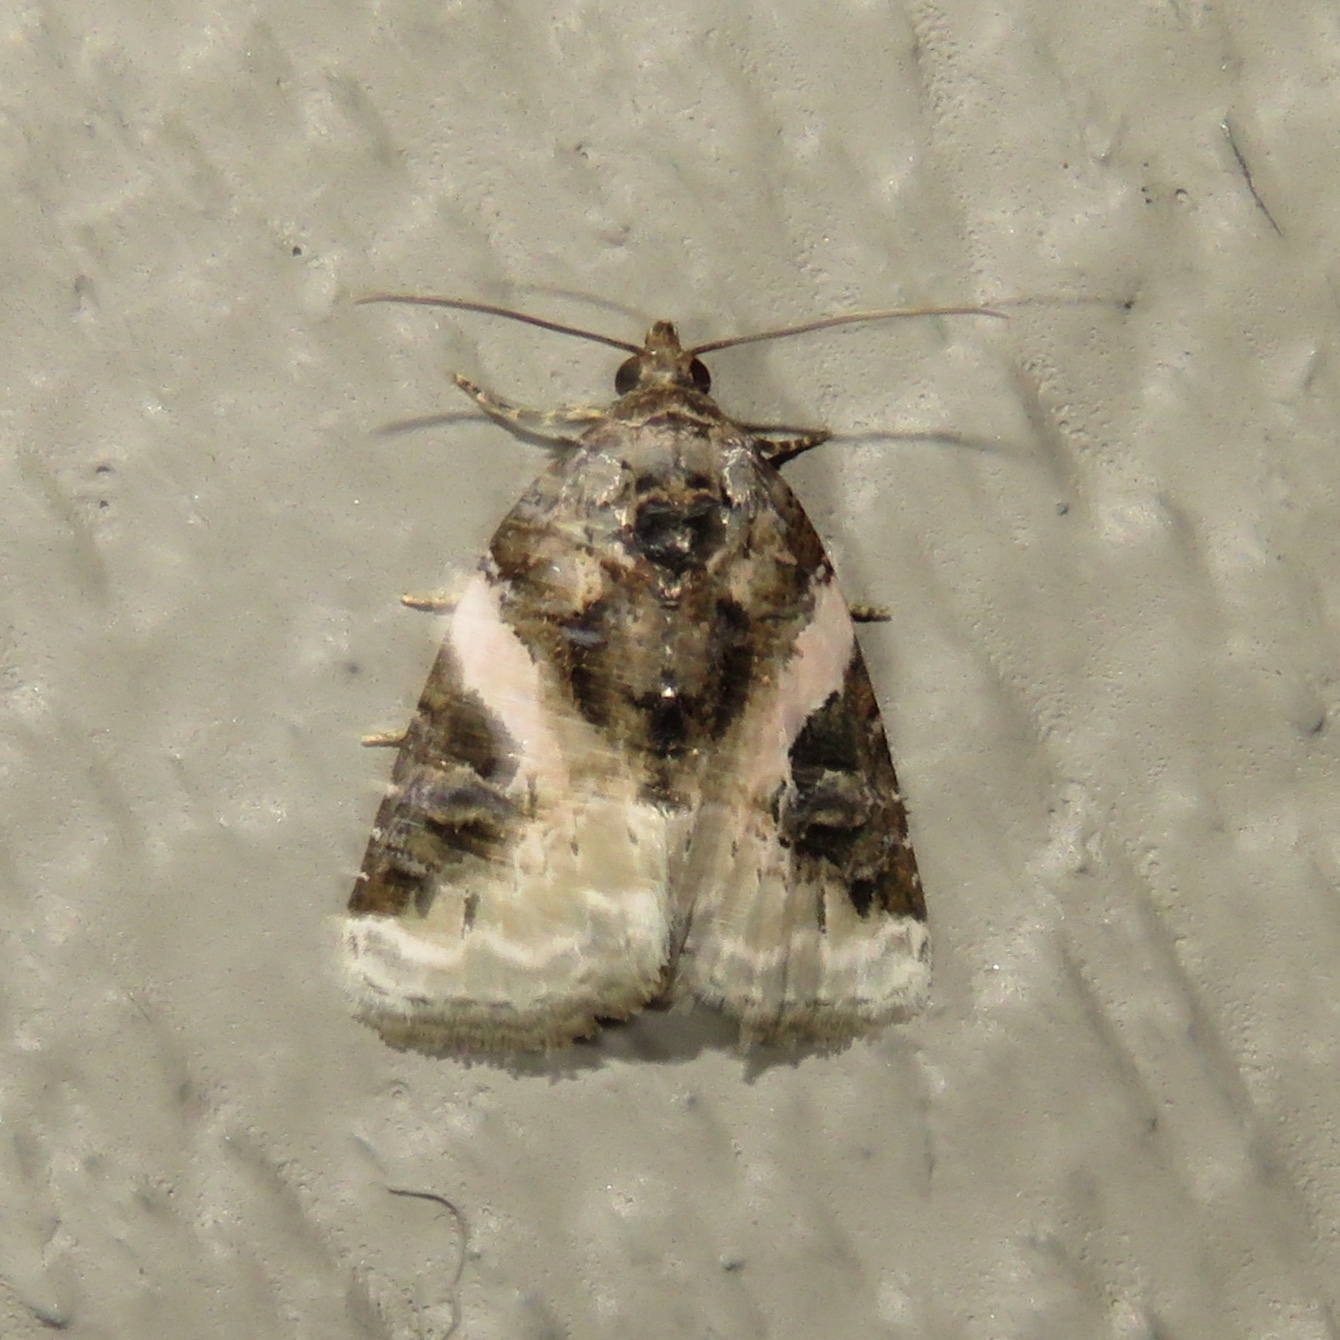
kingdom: Animalia
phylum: Arthropoda
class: Insecta
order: Lepidoptera
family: Noctuidae
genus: Pseudeustrotia
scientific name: Pseudeustrotia carneola
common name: Pink-barred lithacodia moth
